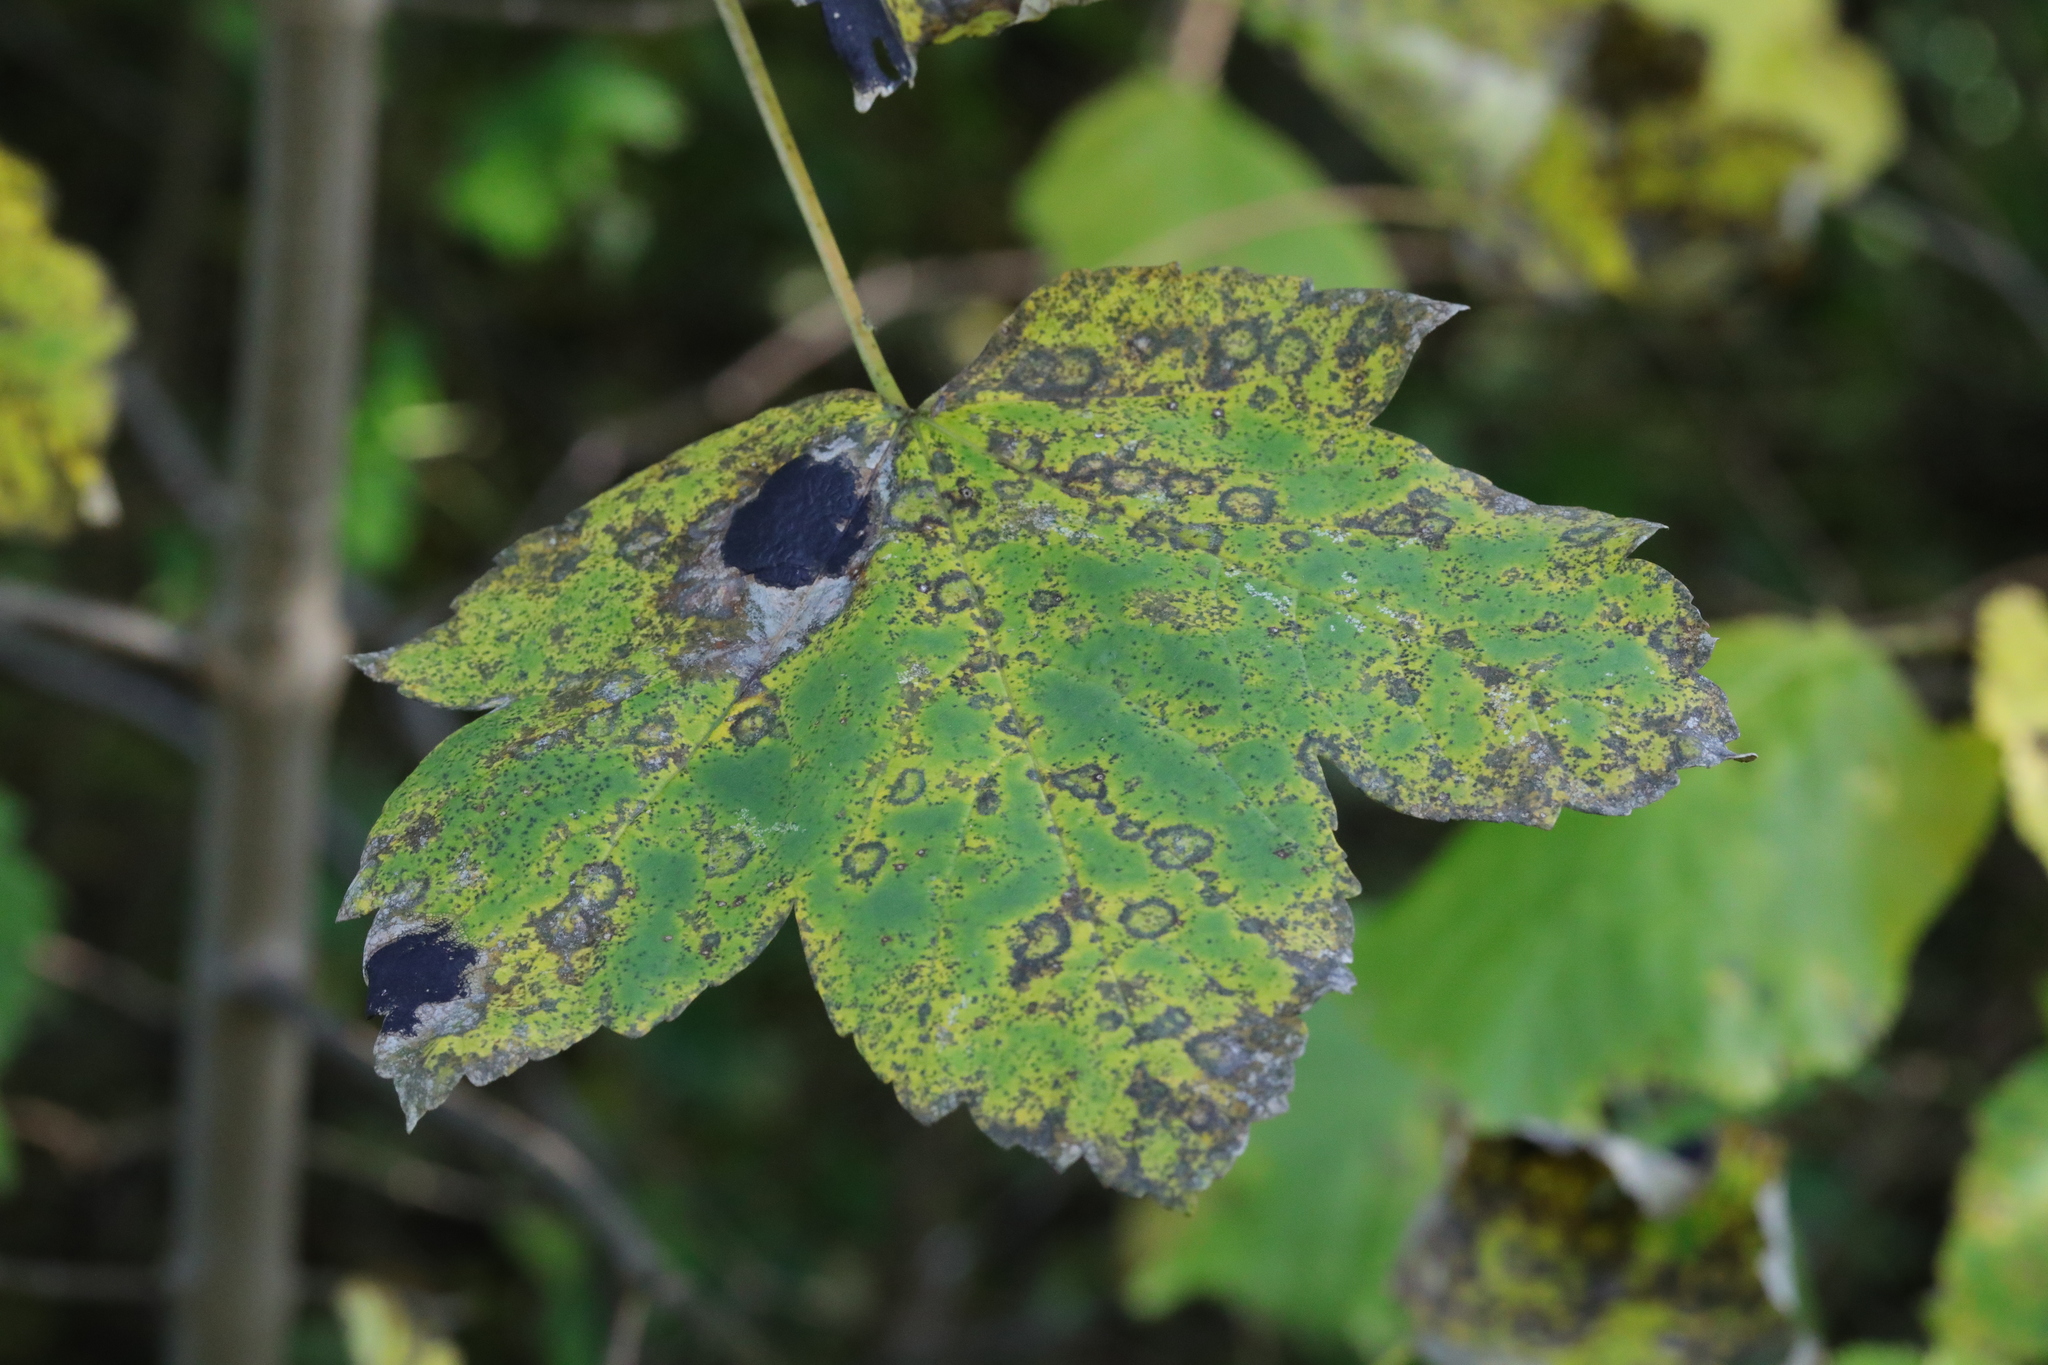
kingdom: Fungi
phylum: Ascomycota
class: Leotiomycetes
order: Rhytismatales
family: Rhytismataceae
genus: Rhytisma
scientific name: Rhytisma acerinum
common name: European tar spot
